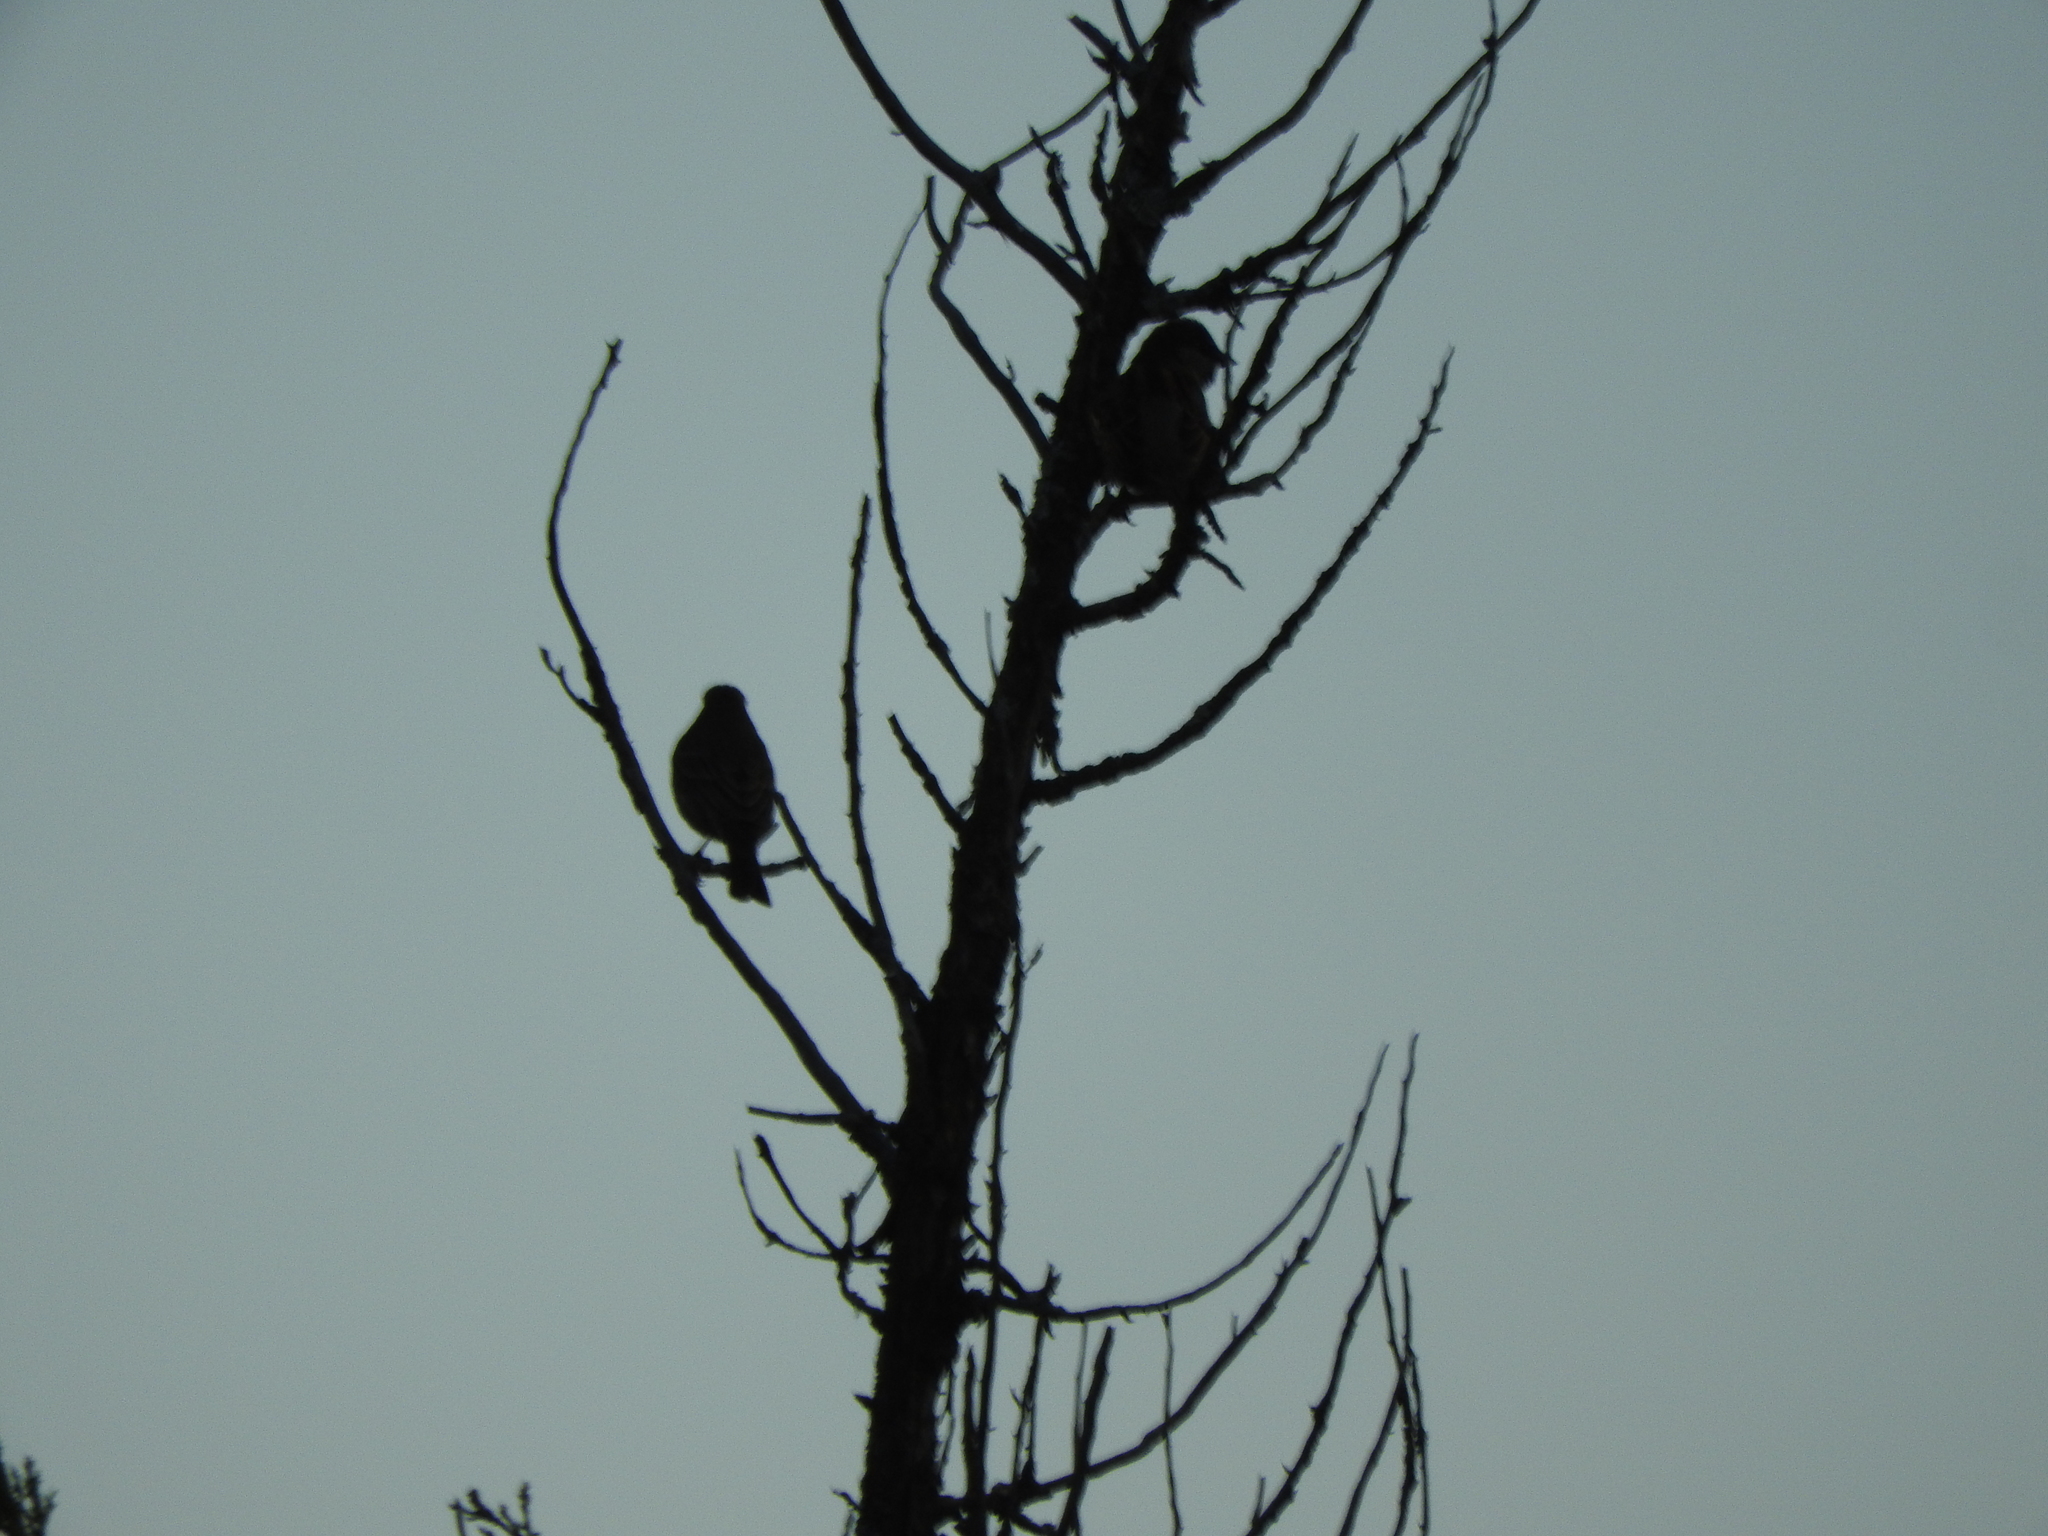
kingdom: Animalia
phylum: Chordata
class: Aves
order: Passeriformes
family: Passeridae
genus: Passer
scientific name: Passer domesticus
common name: House sparrow
